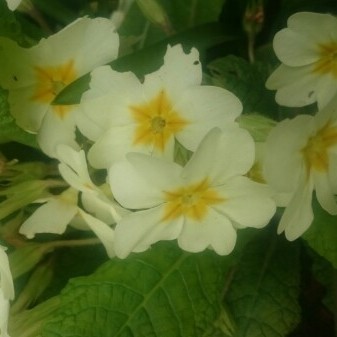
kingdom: Plantae
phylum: Tracheophyta
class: Magnoliopsida
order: Ericales
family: Primulaceae
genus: Primula
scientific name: Primula vulgaris
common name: Primrose
